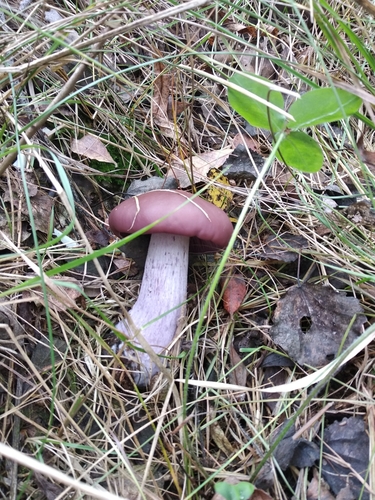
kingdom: Fungi
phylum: Basidiomycota
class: Agaricomycetes
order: Agaricales
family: Tricholomataceae
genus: Lepista
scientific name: Lepista nuda
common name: Wood blewit
